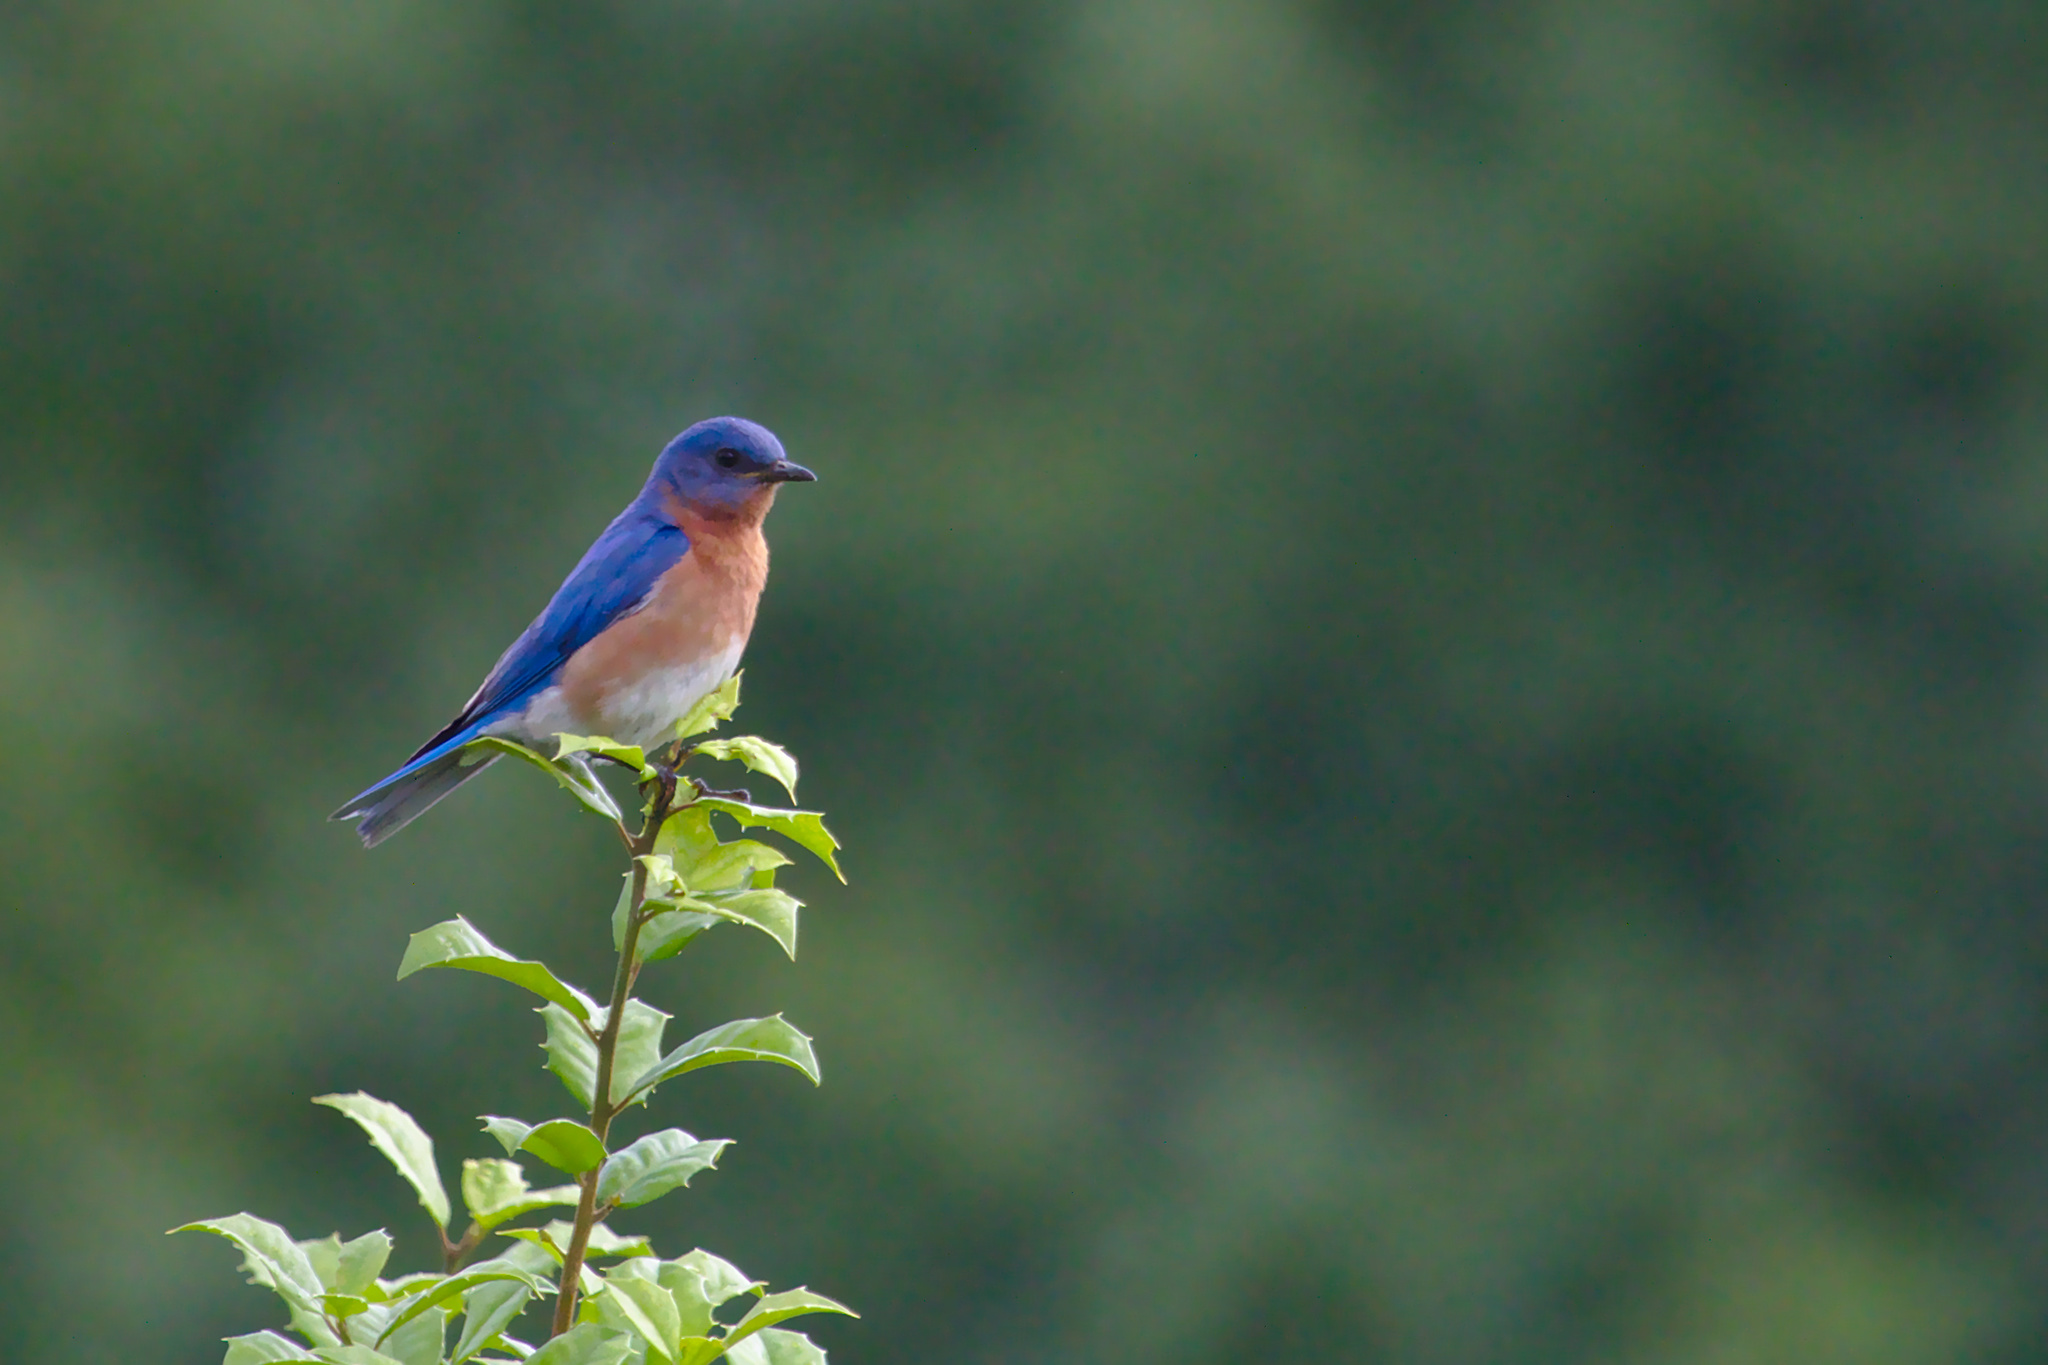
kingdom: Animalia
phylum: Chordata
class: Aves
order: Passeriformes
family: Turdidae
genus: Sialia
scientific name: Sialia sialis
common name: Eastern bluebird
